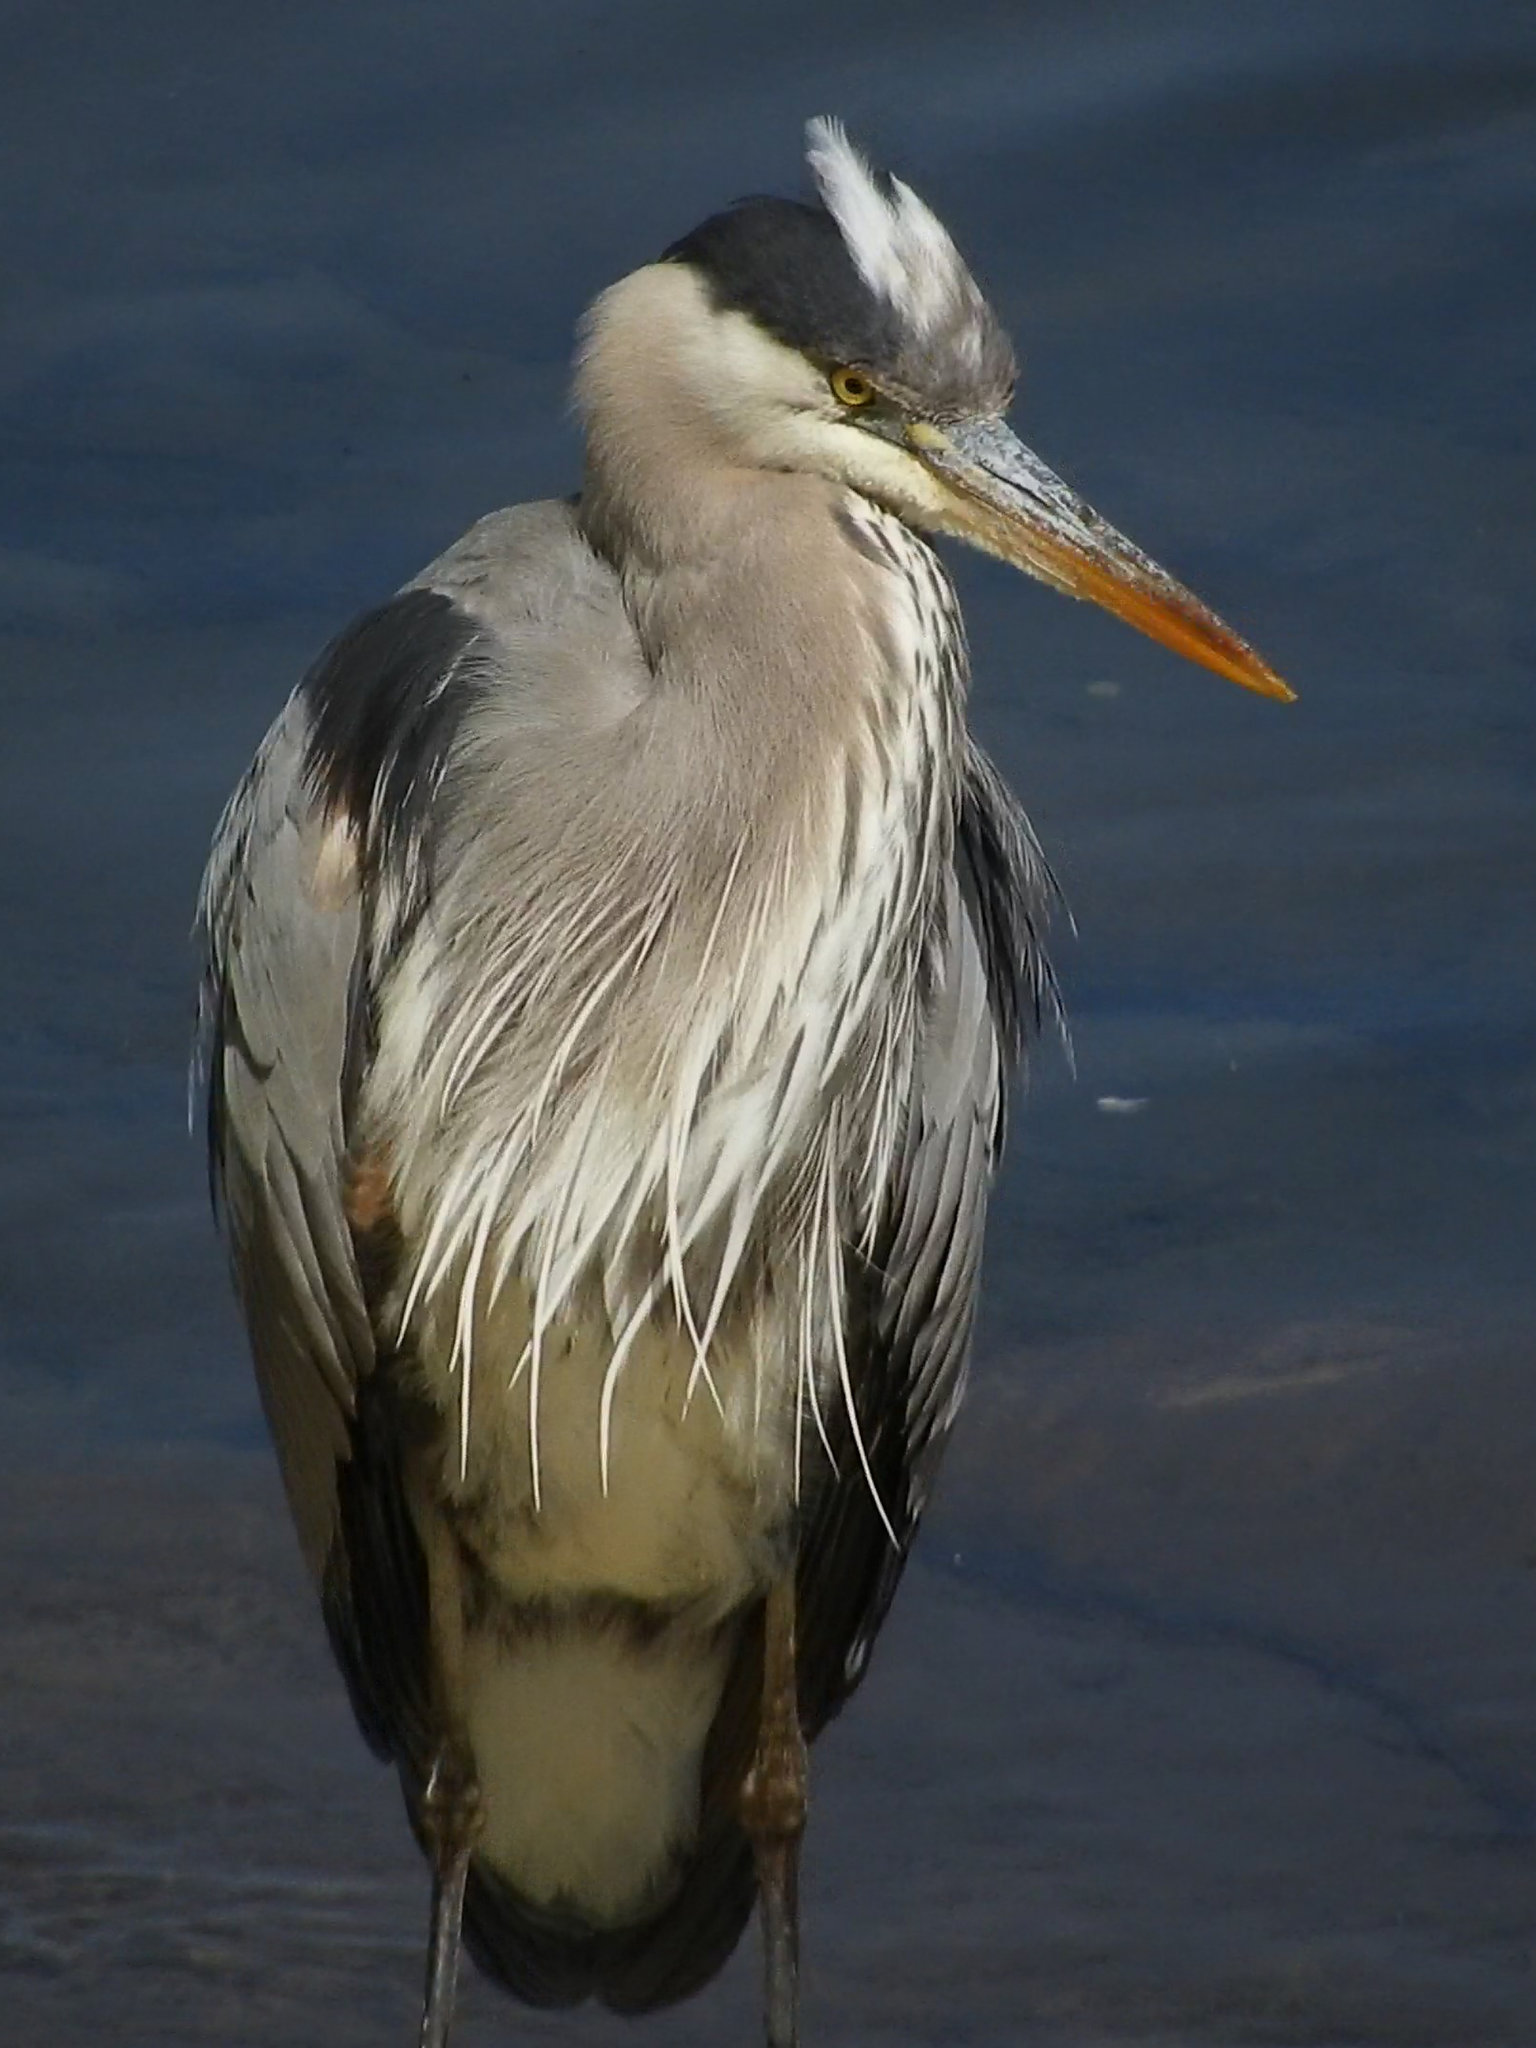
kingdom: Animalia
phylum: Chordata
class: Aves
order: Pelecaniformes
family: Ardeidae
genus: Ardea
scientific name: Ardea herodias
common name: Great blue heron
